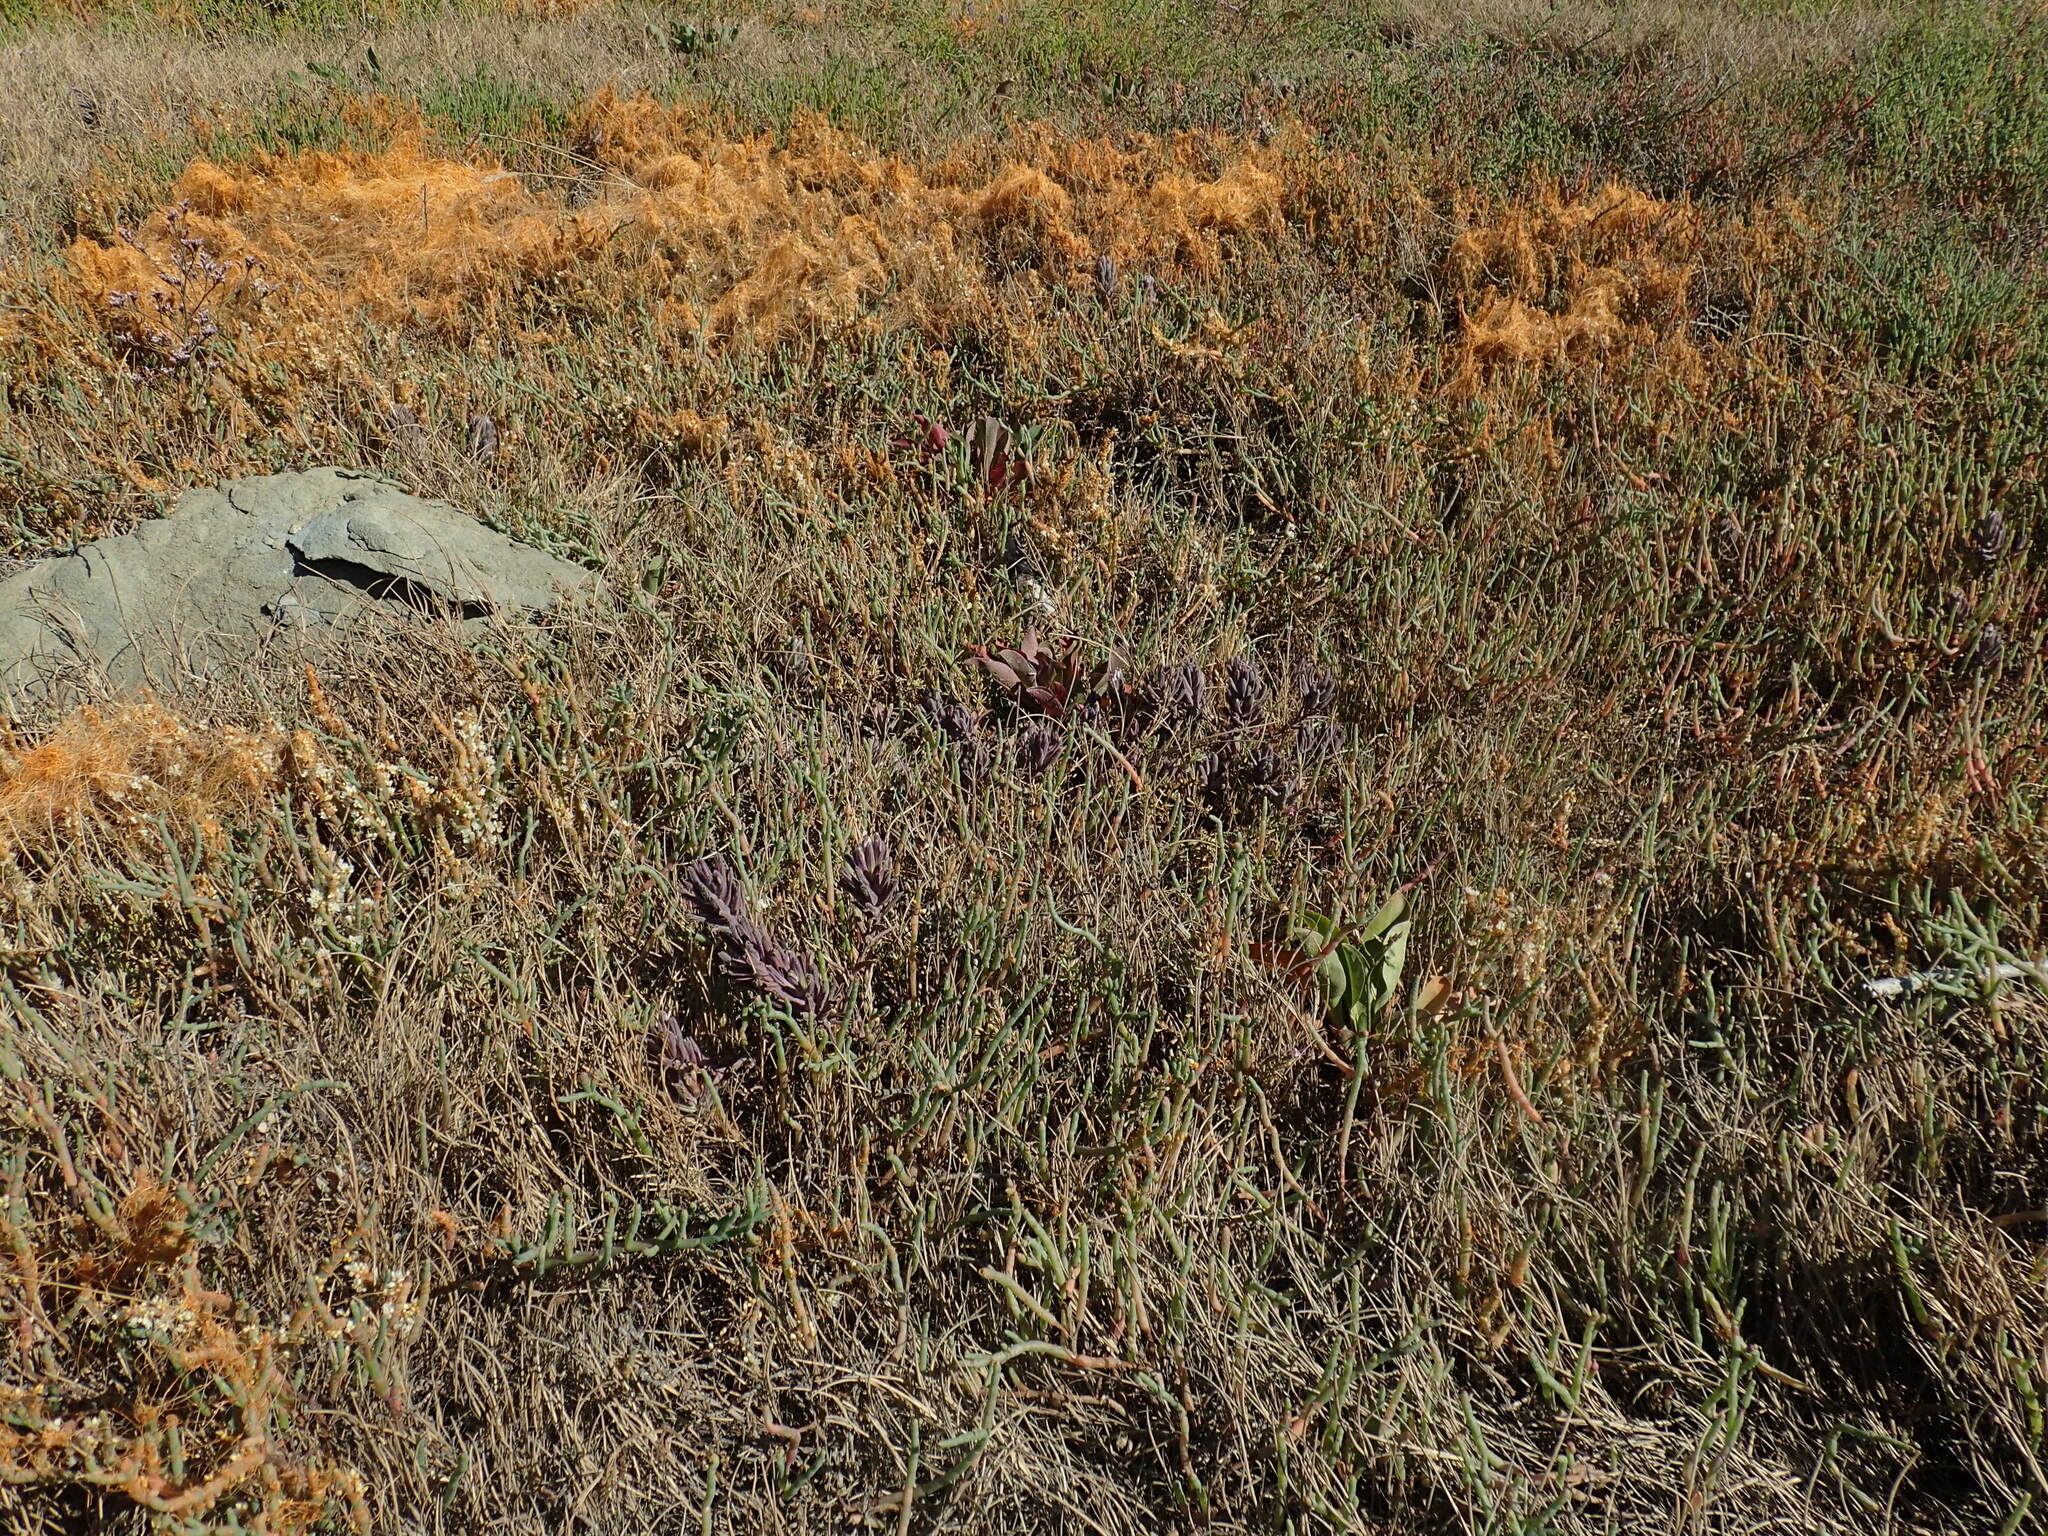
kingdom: Plantae
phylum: Tracheophyta
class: Magnoliopsida
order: Lamiales
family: Orobanchaceae
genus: Chloropyron
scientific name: Chloropyron maritimum
